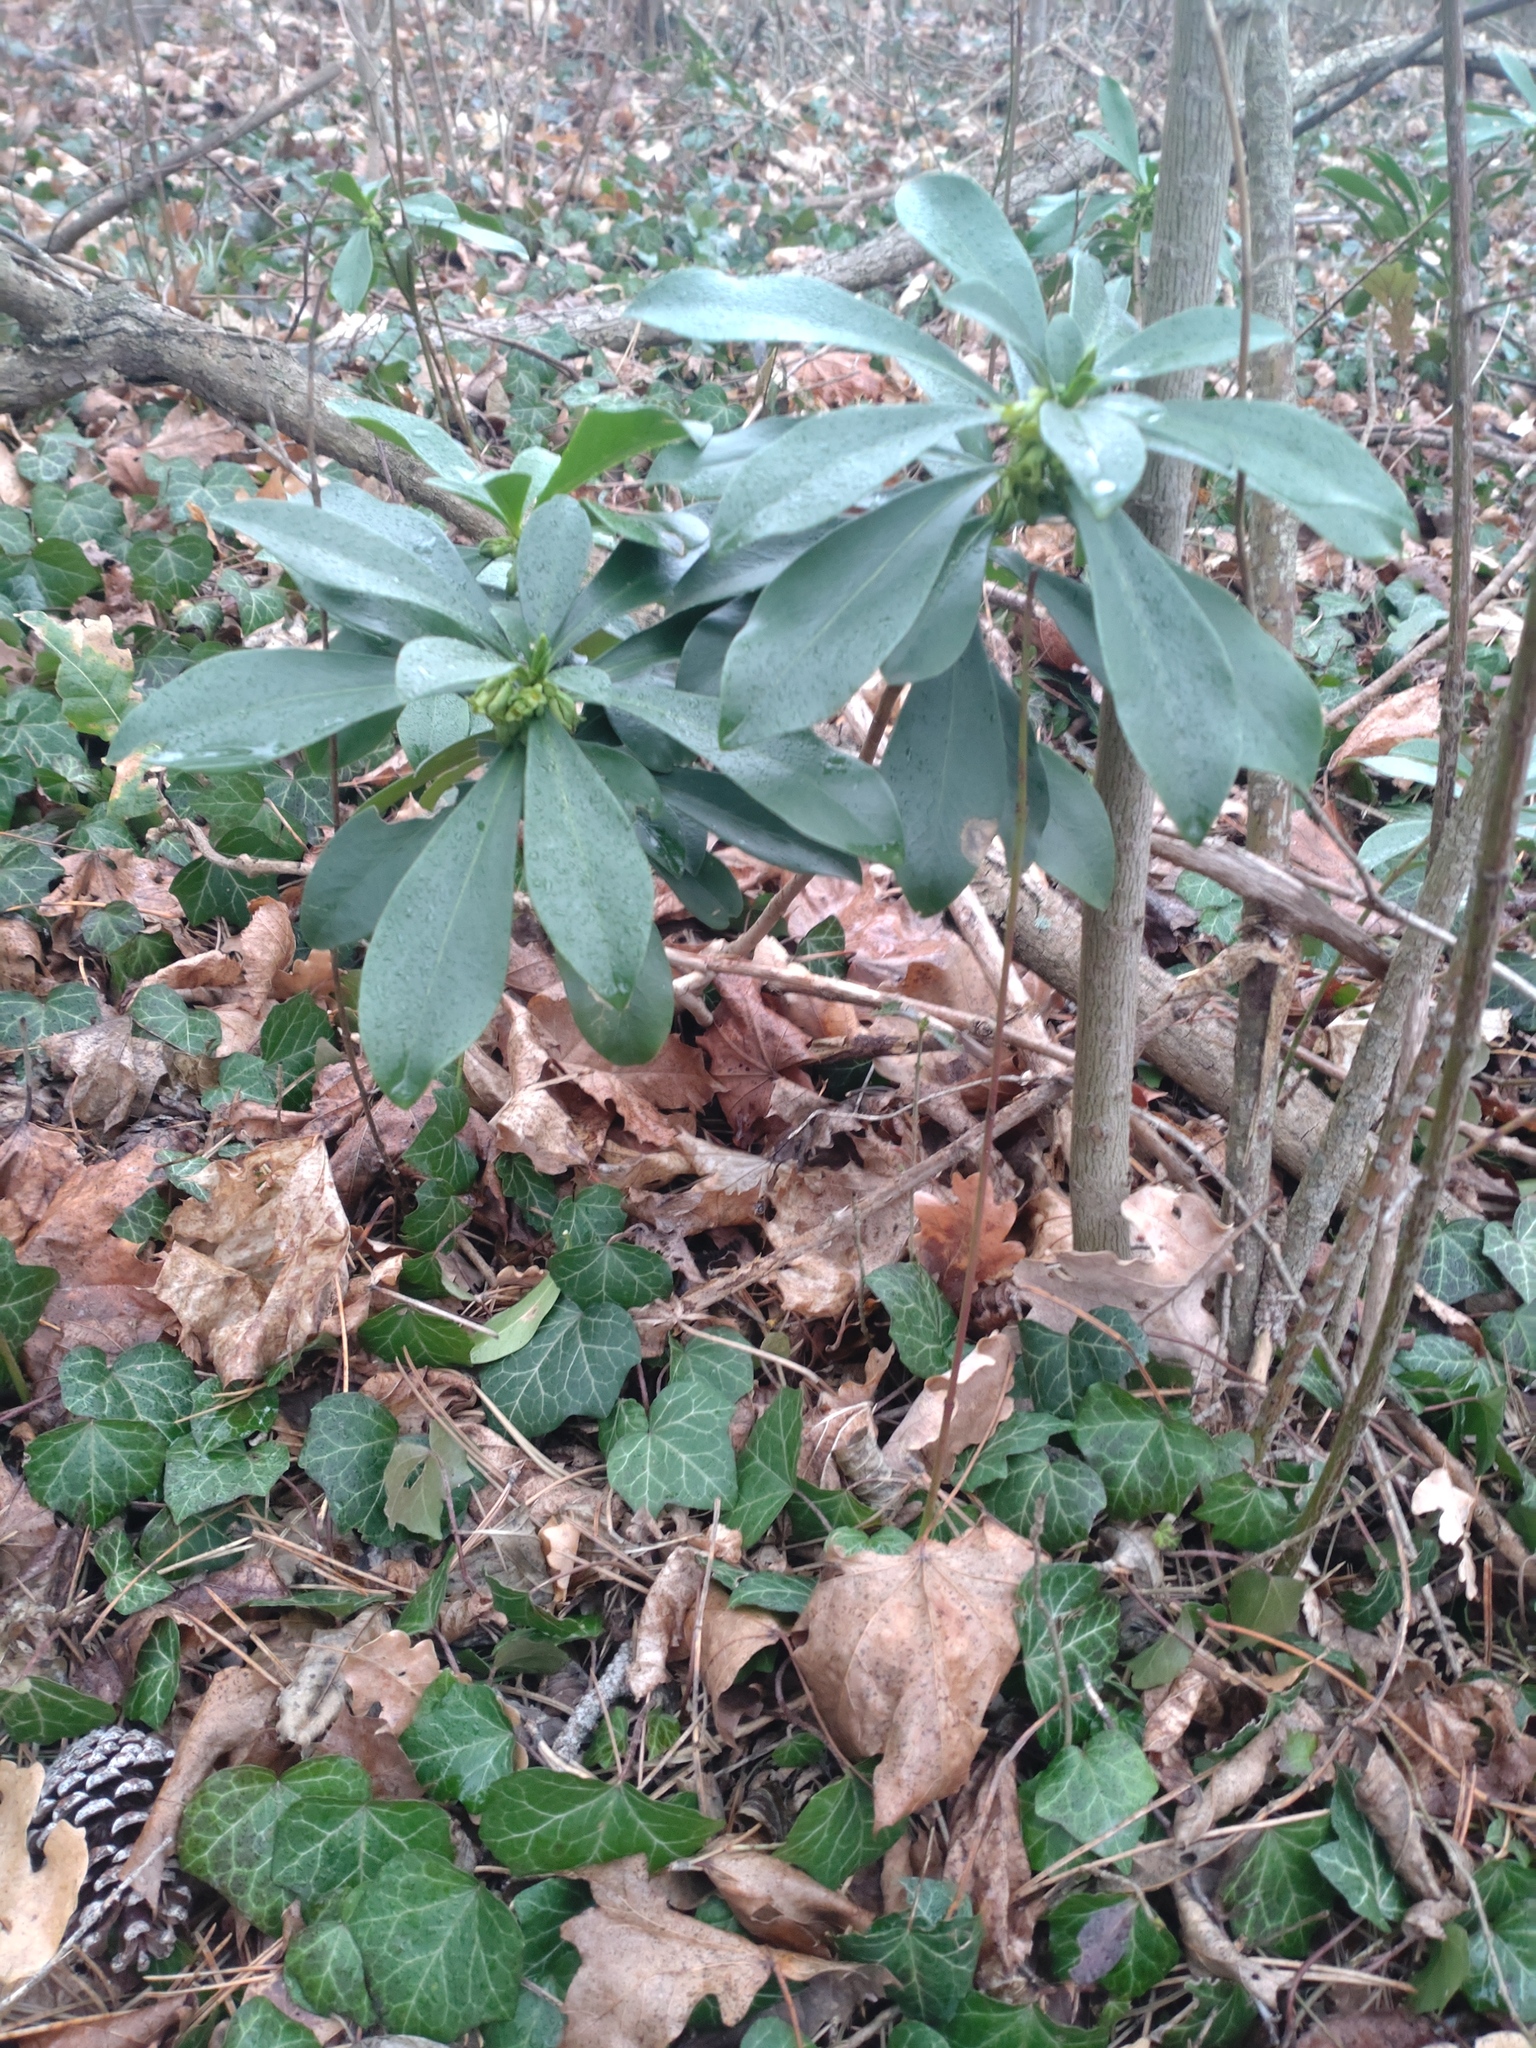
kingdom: Plantae
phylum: Tracheophyta
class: Magnoliopsida
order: Malvales
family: Thymelaeaceae
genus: Daphne
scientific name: Daphne laureola
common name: Spurge-laurel
